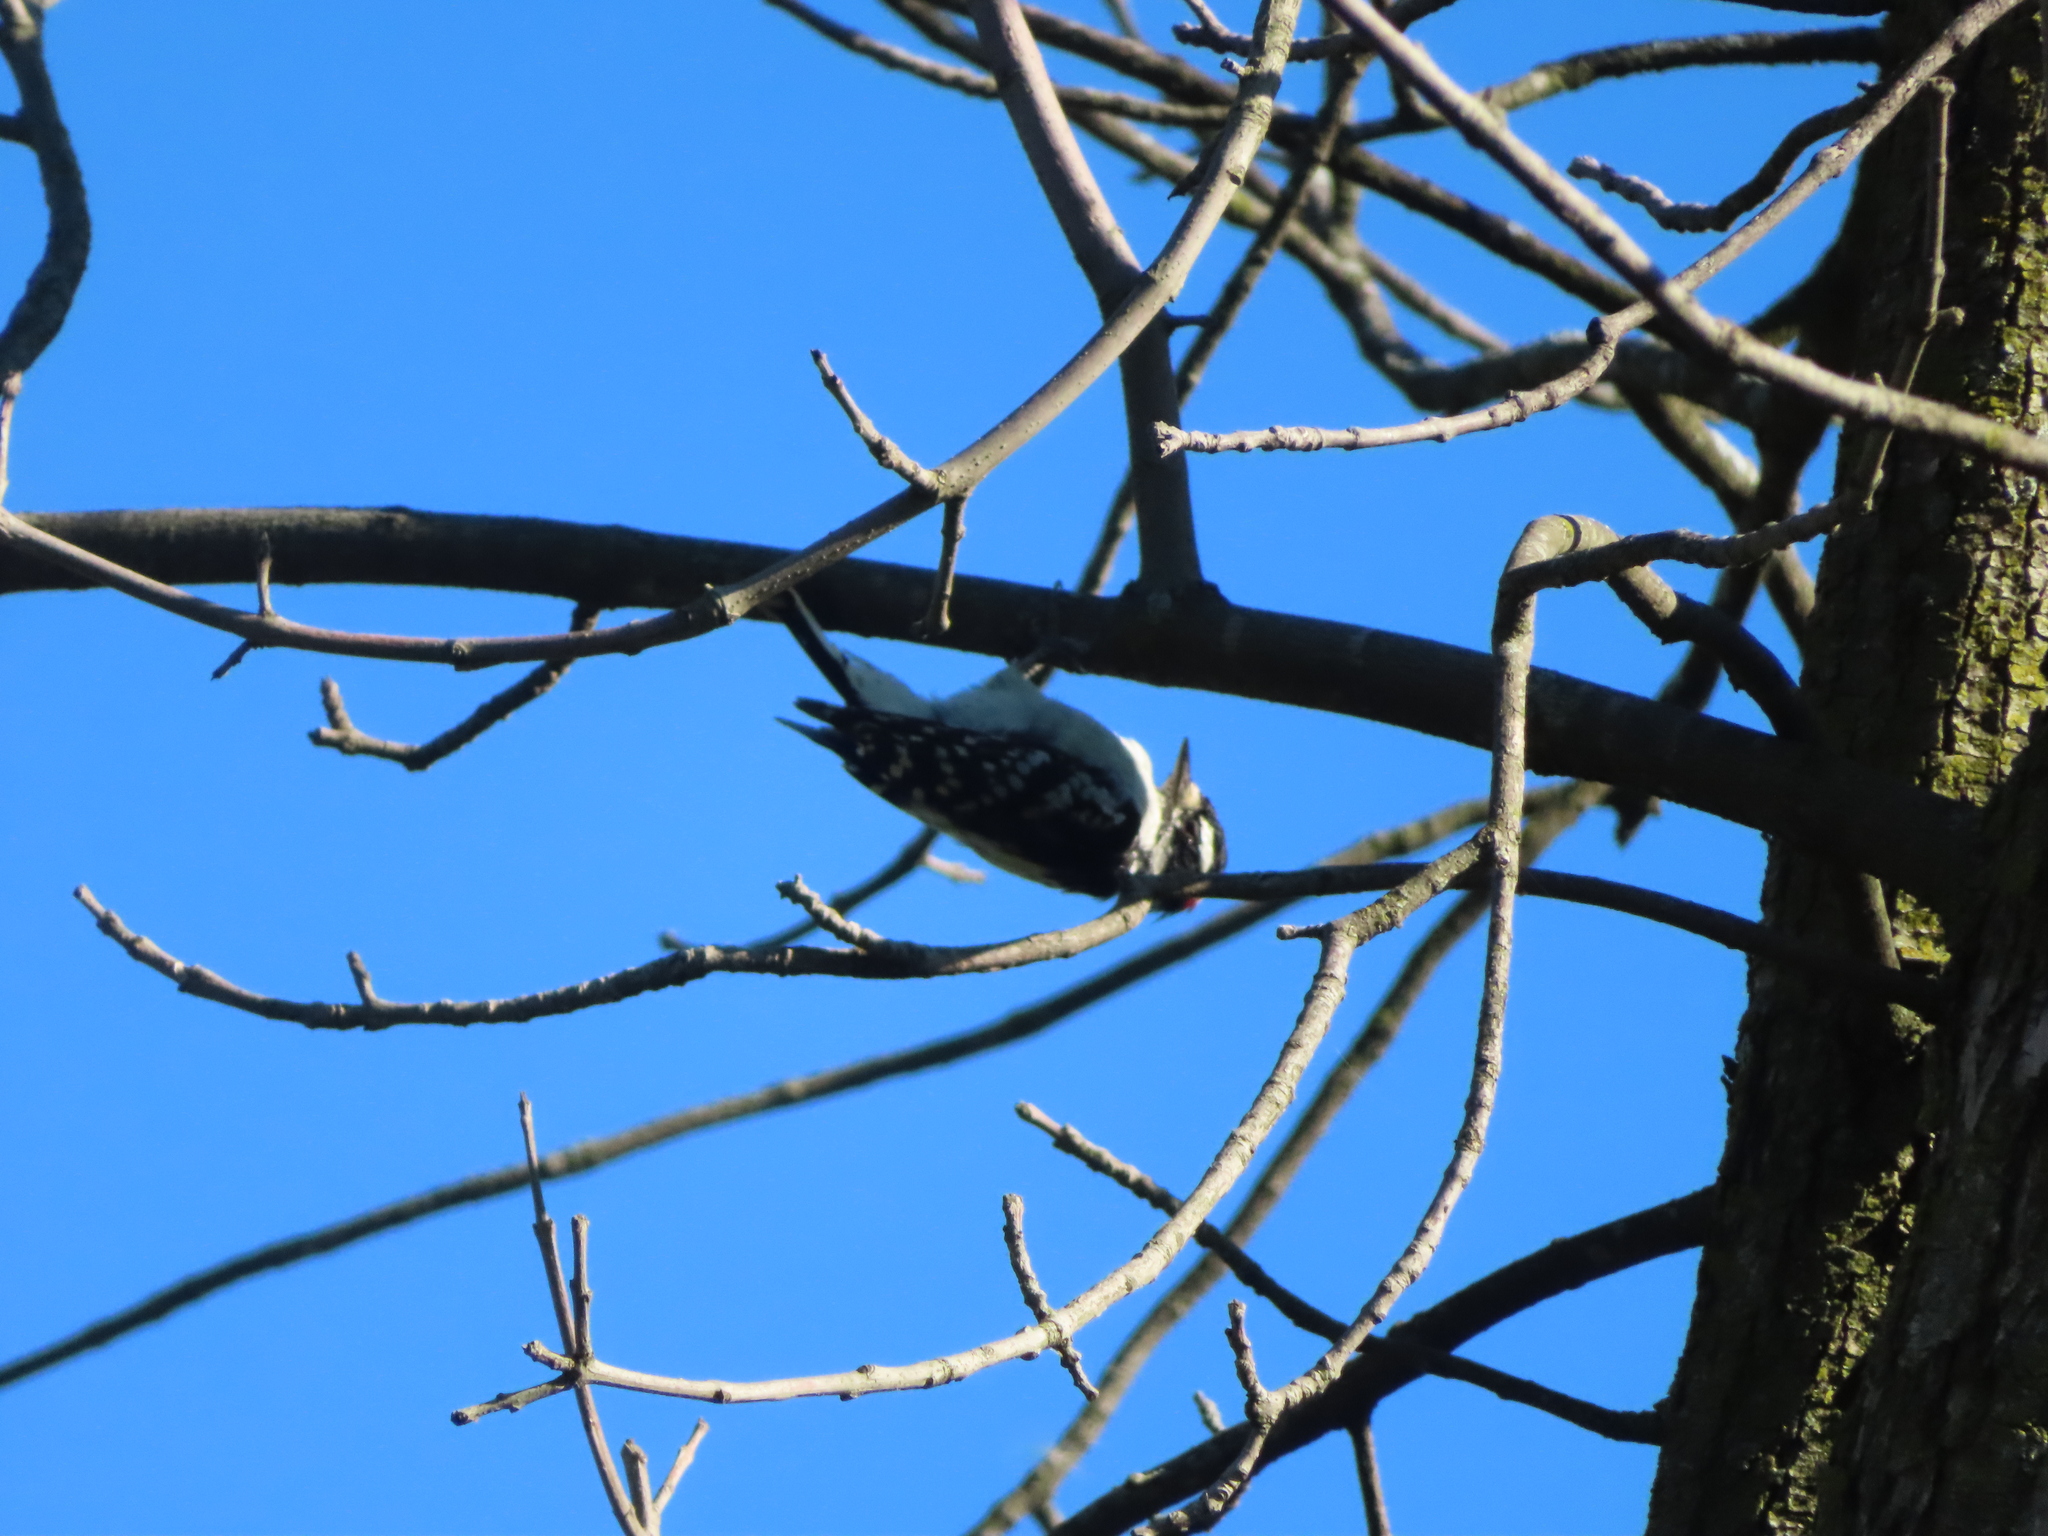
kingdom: Animalia
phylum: Chordata
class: Aves
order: Piciformes
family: Picidae
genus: Dryobates
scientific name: Dryobates pubescens
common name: Downy woodpecker
